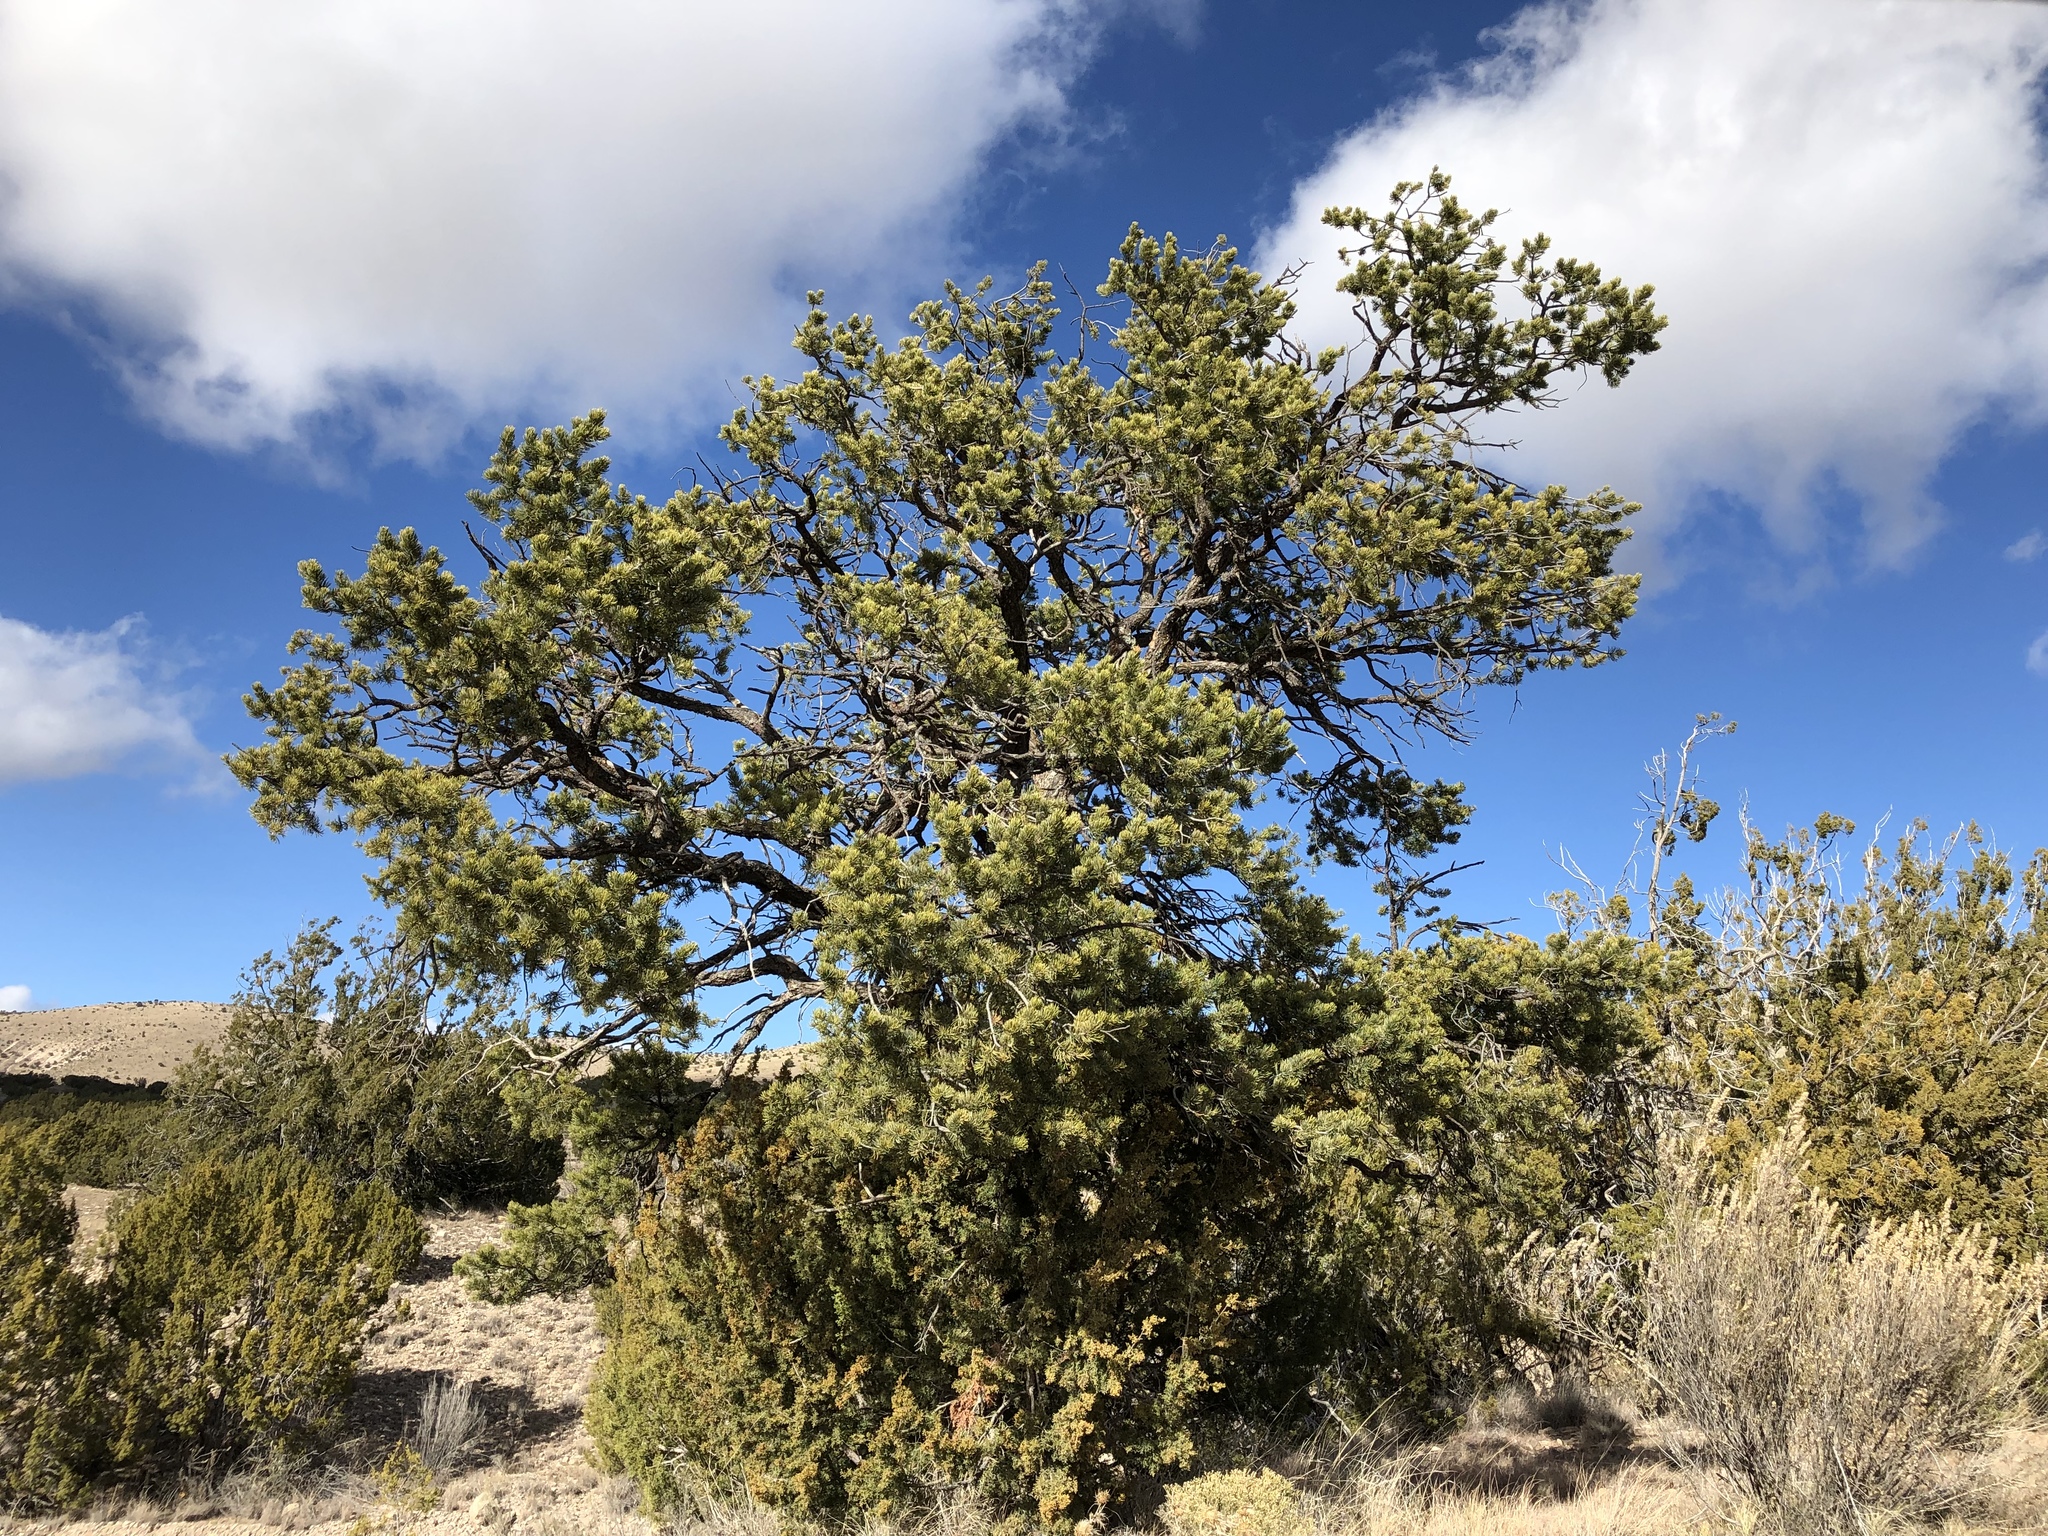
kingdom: Plantae
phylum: Tracheophyta
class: Pinopsida
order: Pinales
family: Pinaceae
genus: Pinus
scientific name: Pinus edulis
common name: Colorado pinyon
